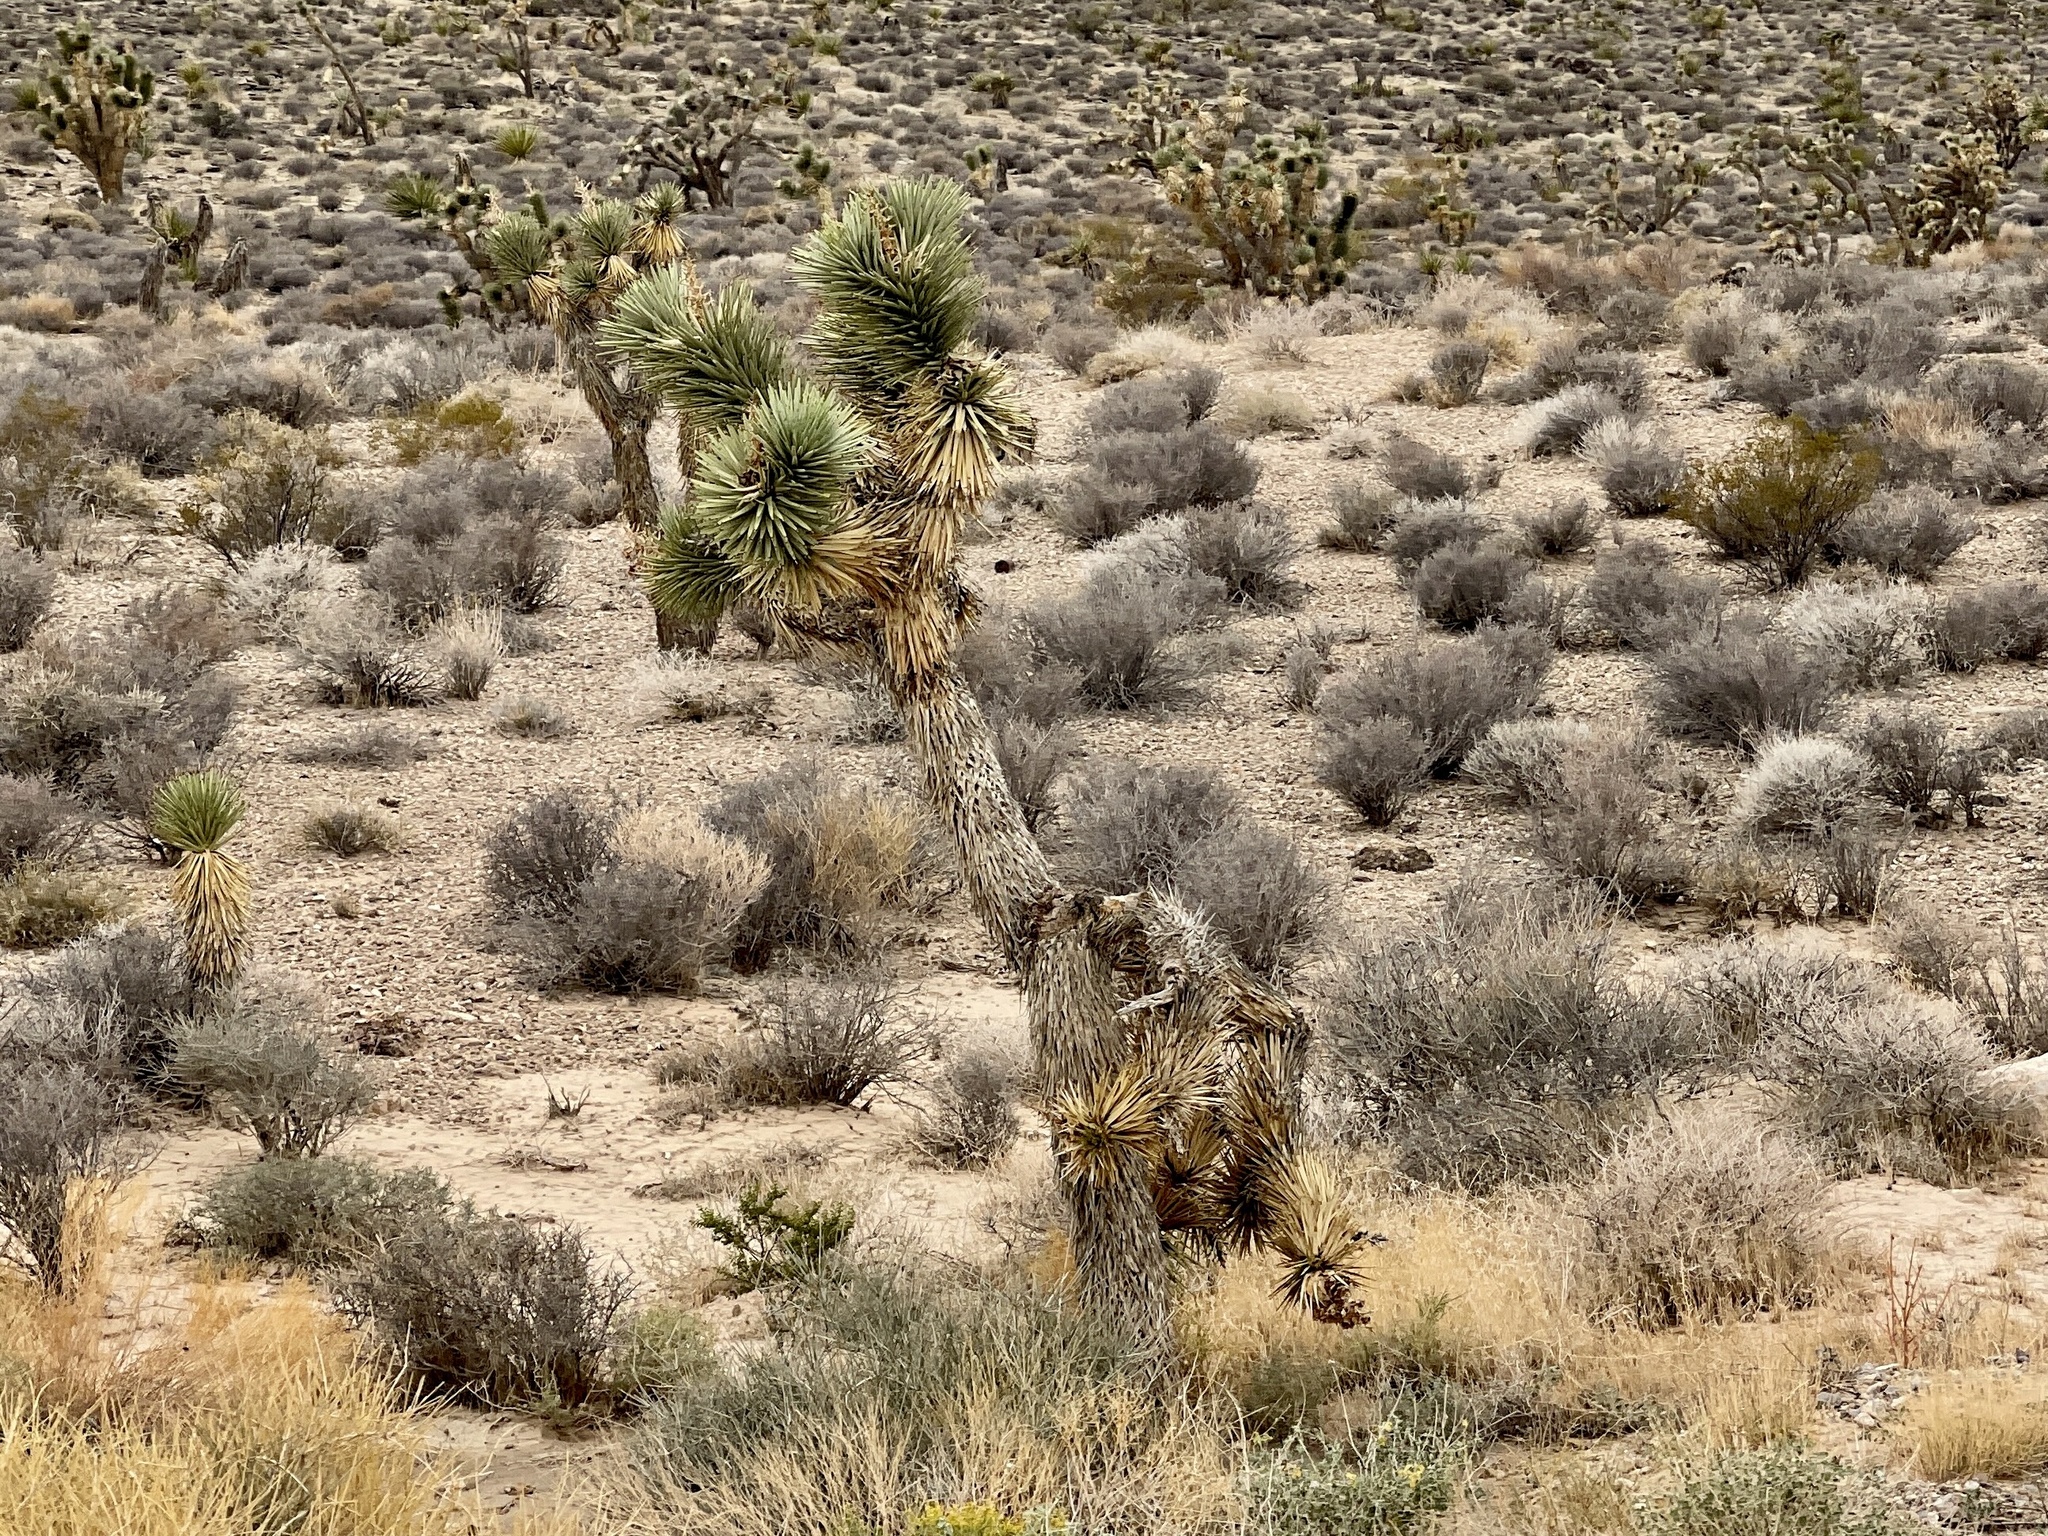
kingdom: Plantae
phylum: Tracheophyta
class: Liliopsida
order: Asparagales
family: Asparagaceae
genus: Yucca
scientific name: Yucca brevifolia
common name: Joshua tree
